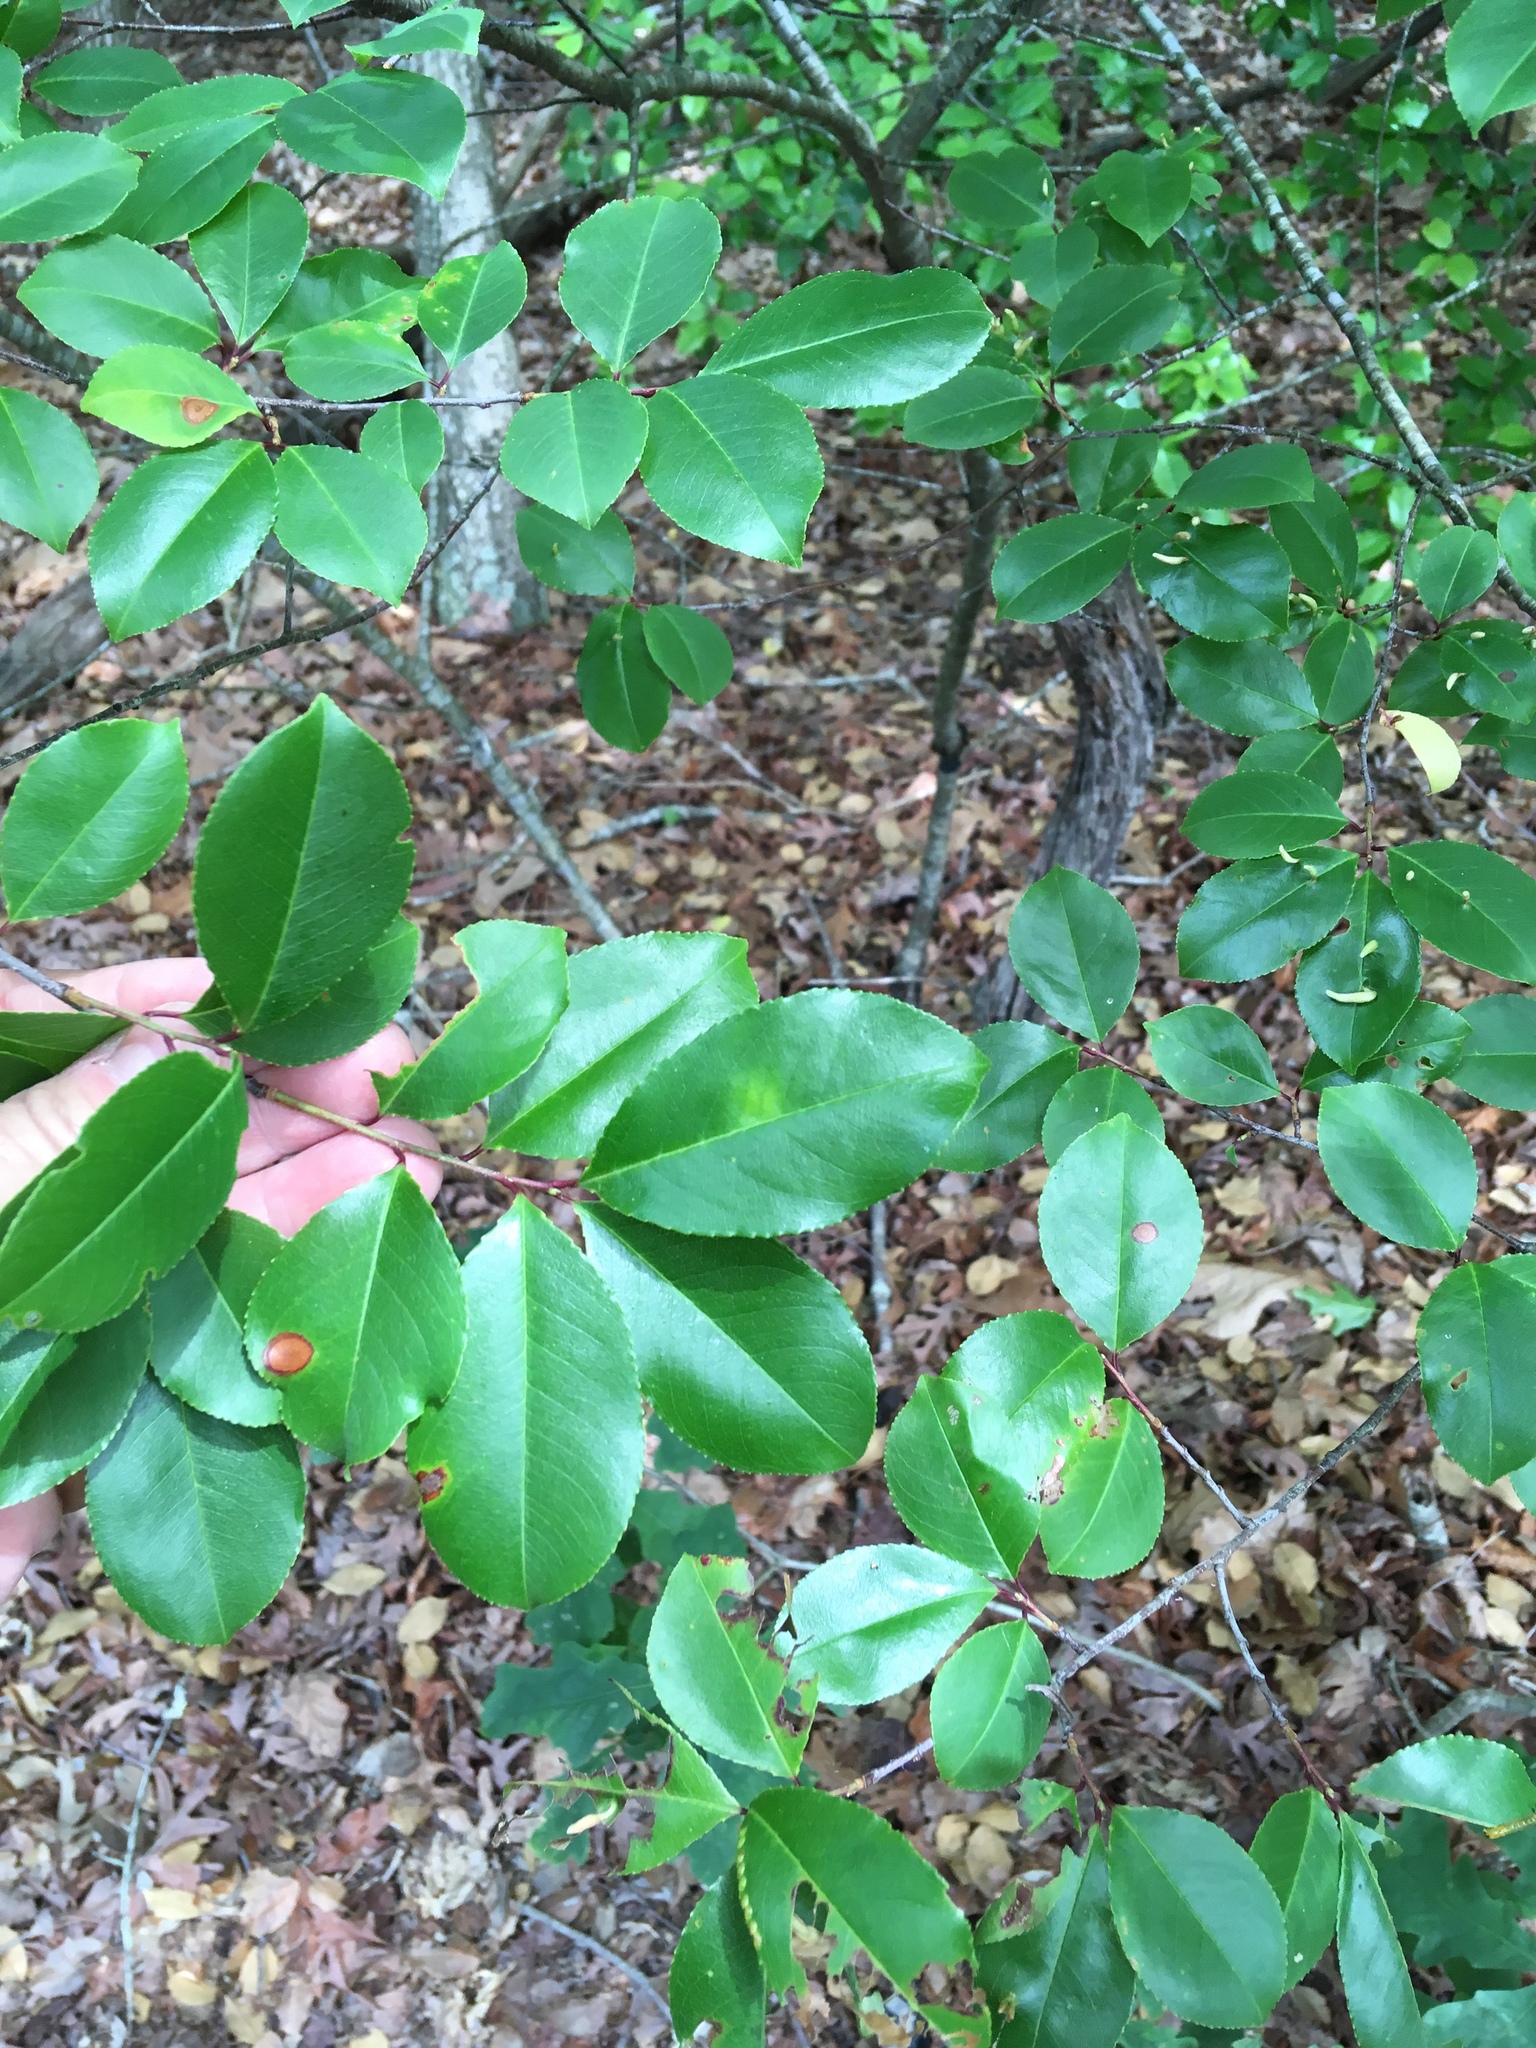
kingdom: Animalia
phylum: Arthropoda
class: Arachnida
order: Trombidiformes
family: Eriophyidae
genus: Eriophyes
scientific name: Eriophyes
